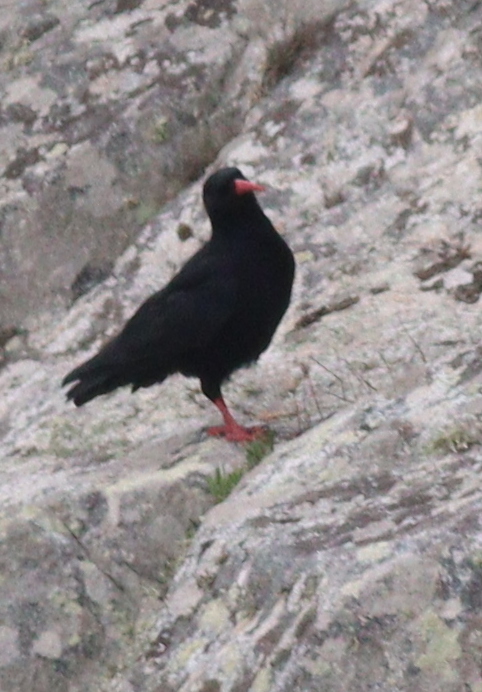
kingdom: Animalia
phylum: Chordata
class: Aves
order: Passeriformes
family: Corvidae
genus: Pyrrhocorax
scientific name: Pyrrhocorax pyrrhocorax
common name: Red-billed chough
